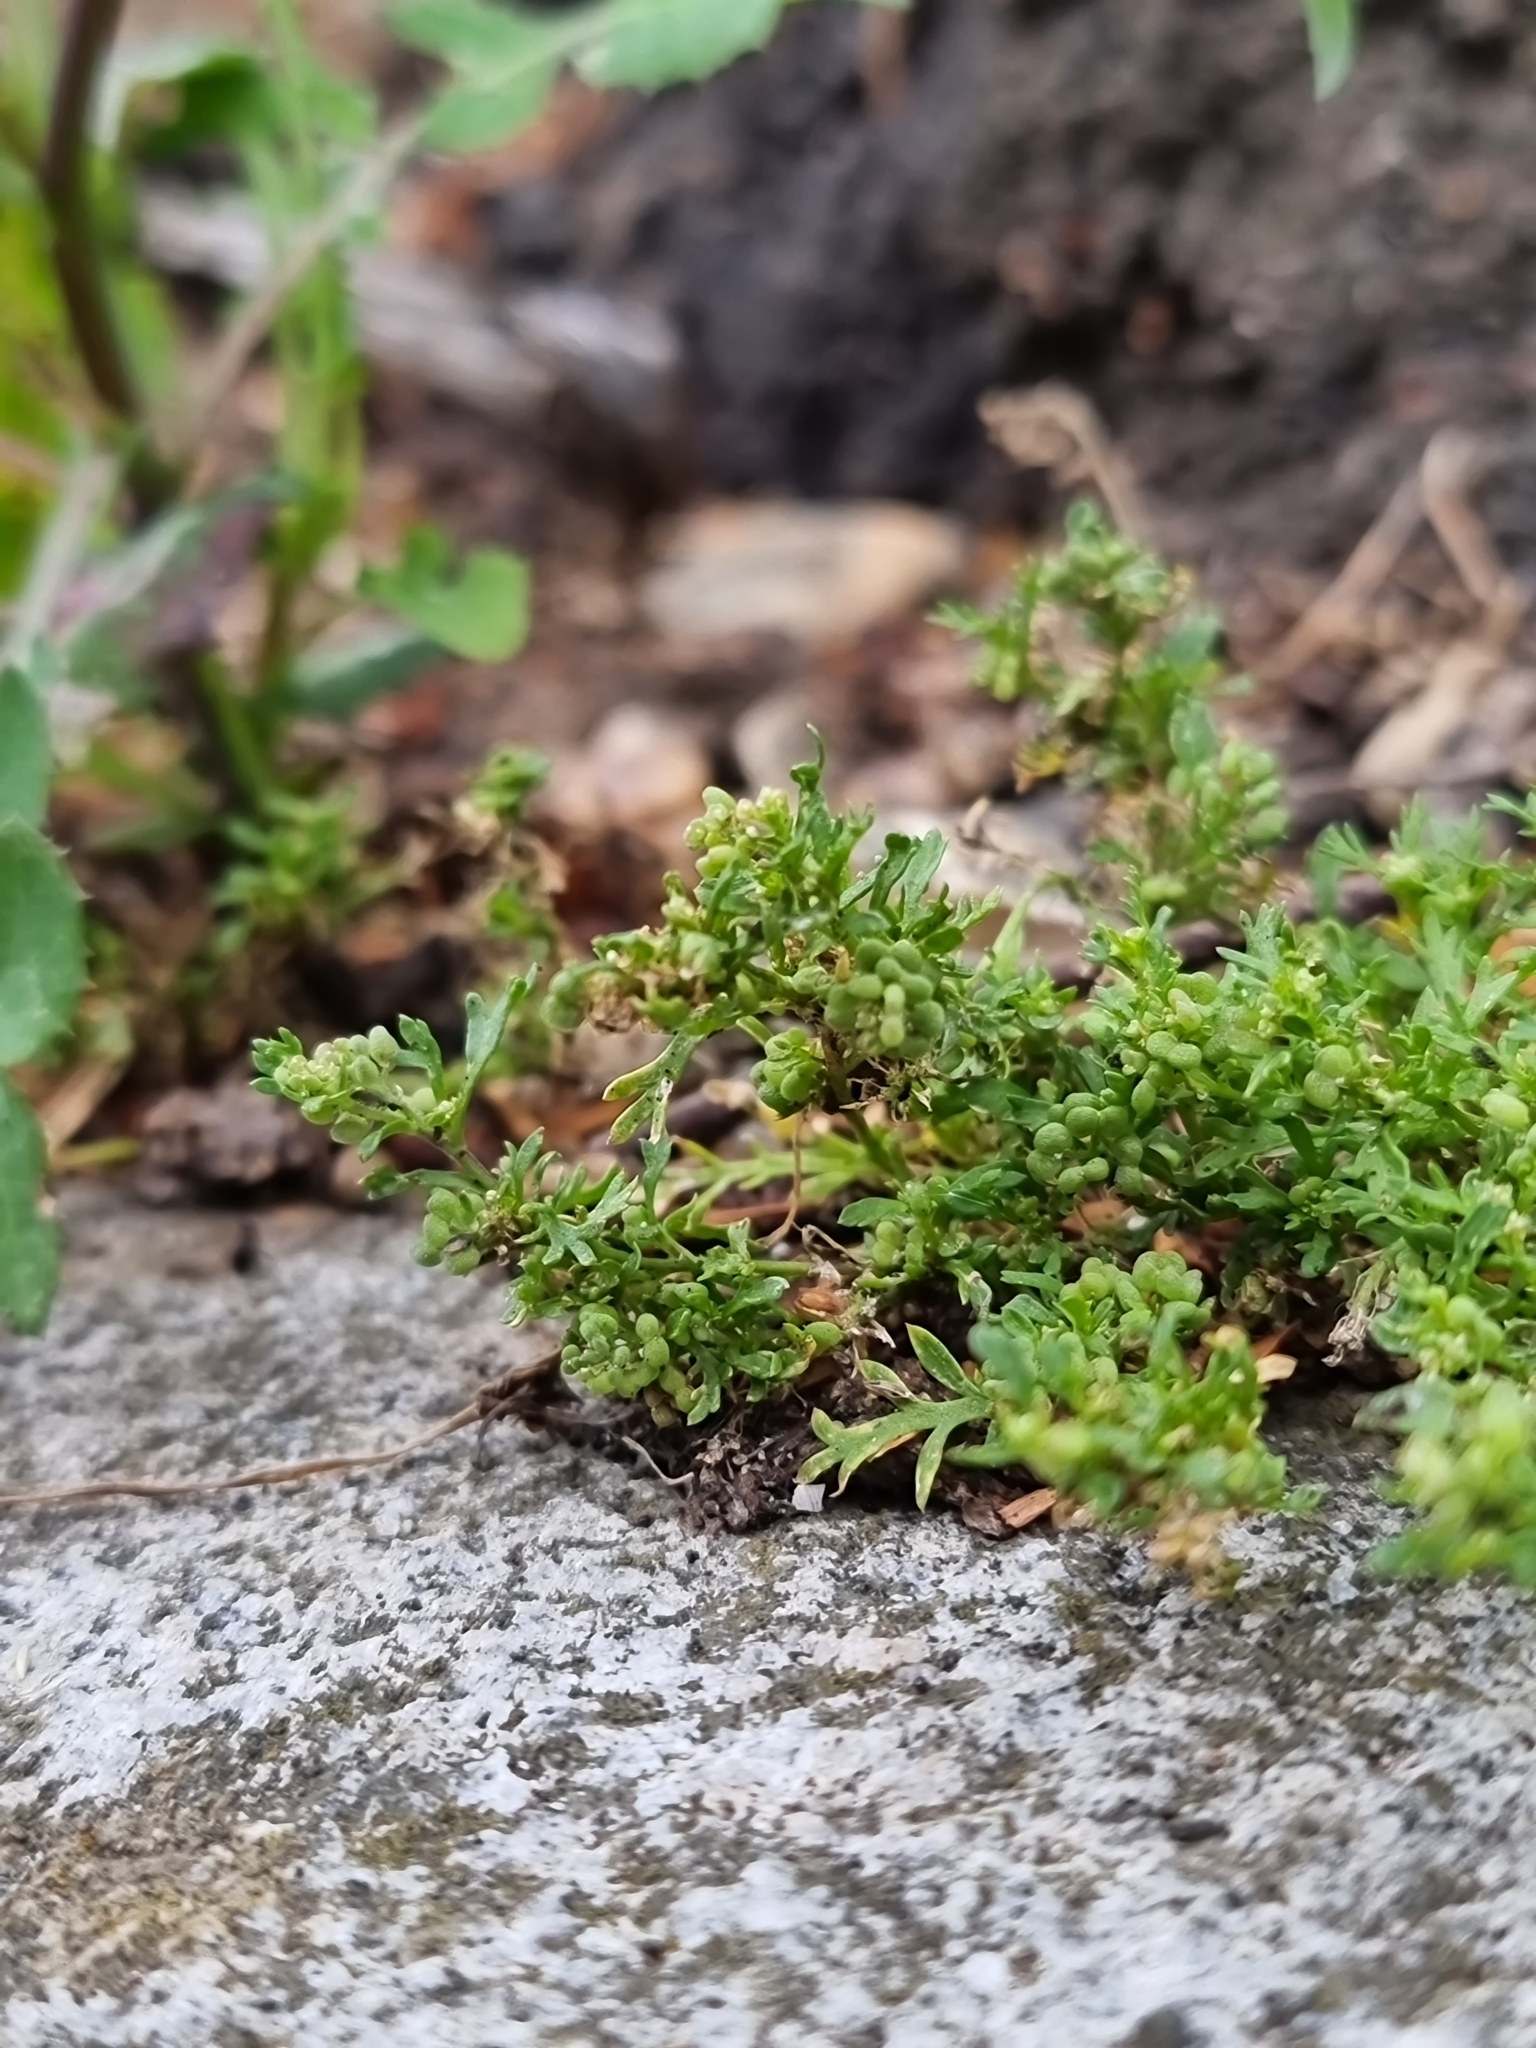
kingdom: Plantae
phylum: Tracheophyta
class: Magnoliopsida
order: Brassicales
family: Brassicaceae
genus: Lepidium
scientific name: Lepidium didymum
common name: Lesser swinecress
